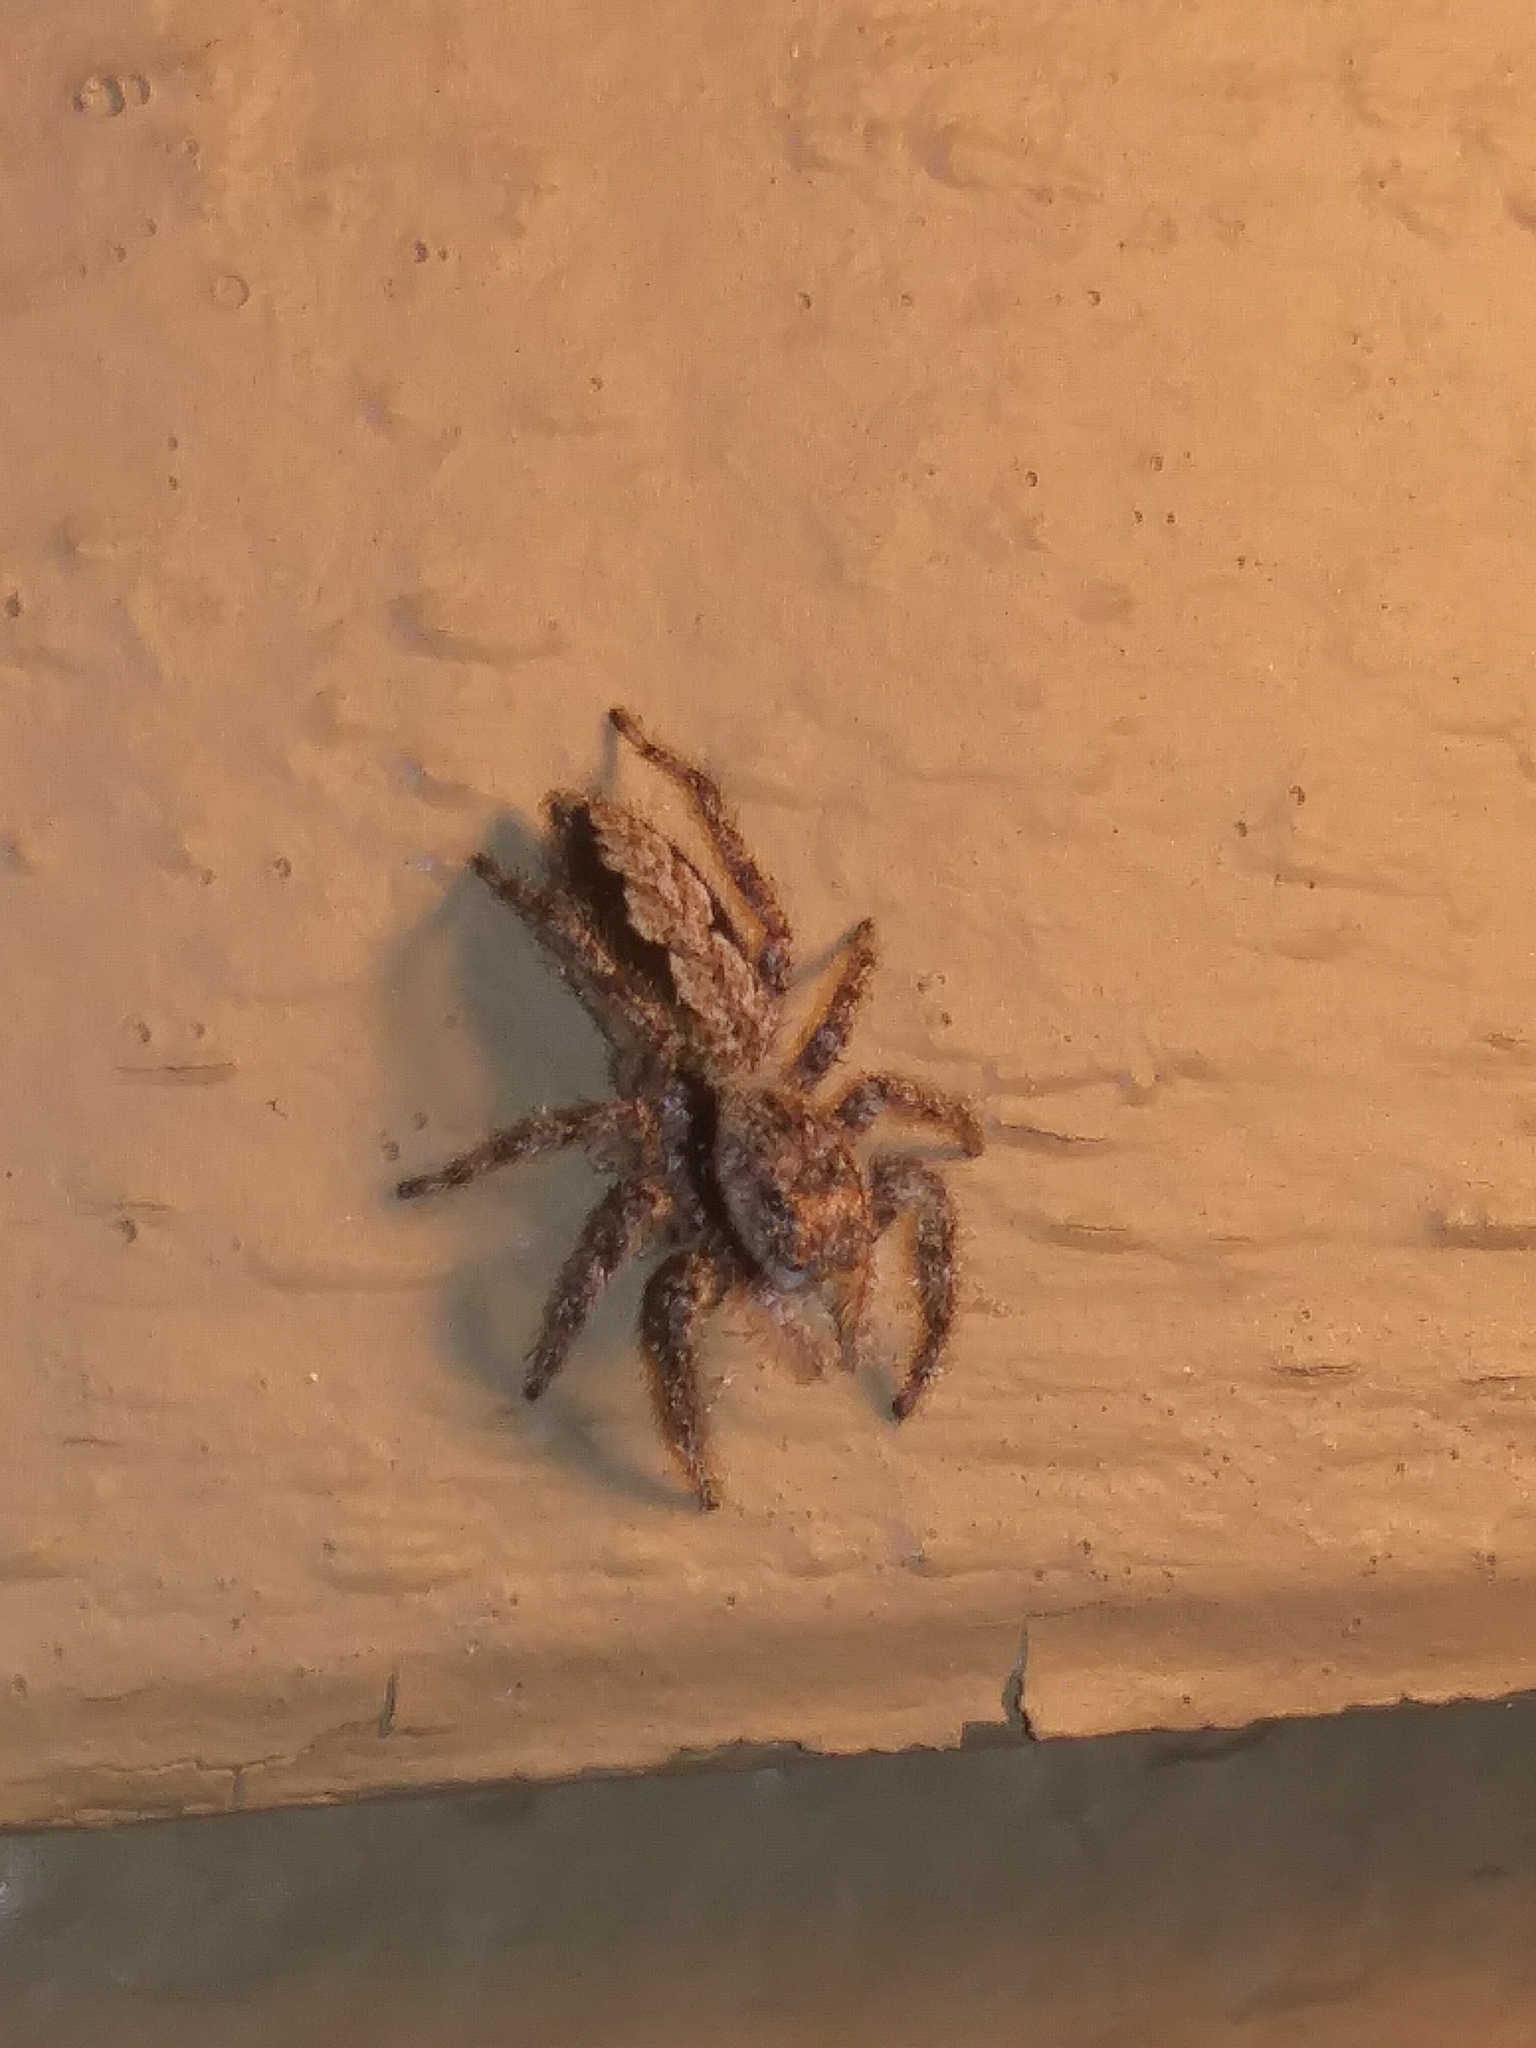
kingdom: Animalia
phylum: Arthropoda
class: Arachnida
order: Araneae
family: Salticidae
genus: Platycryptus
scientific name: Platycryptus undatus
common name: Tan jumping spider
